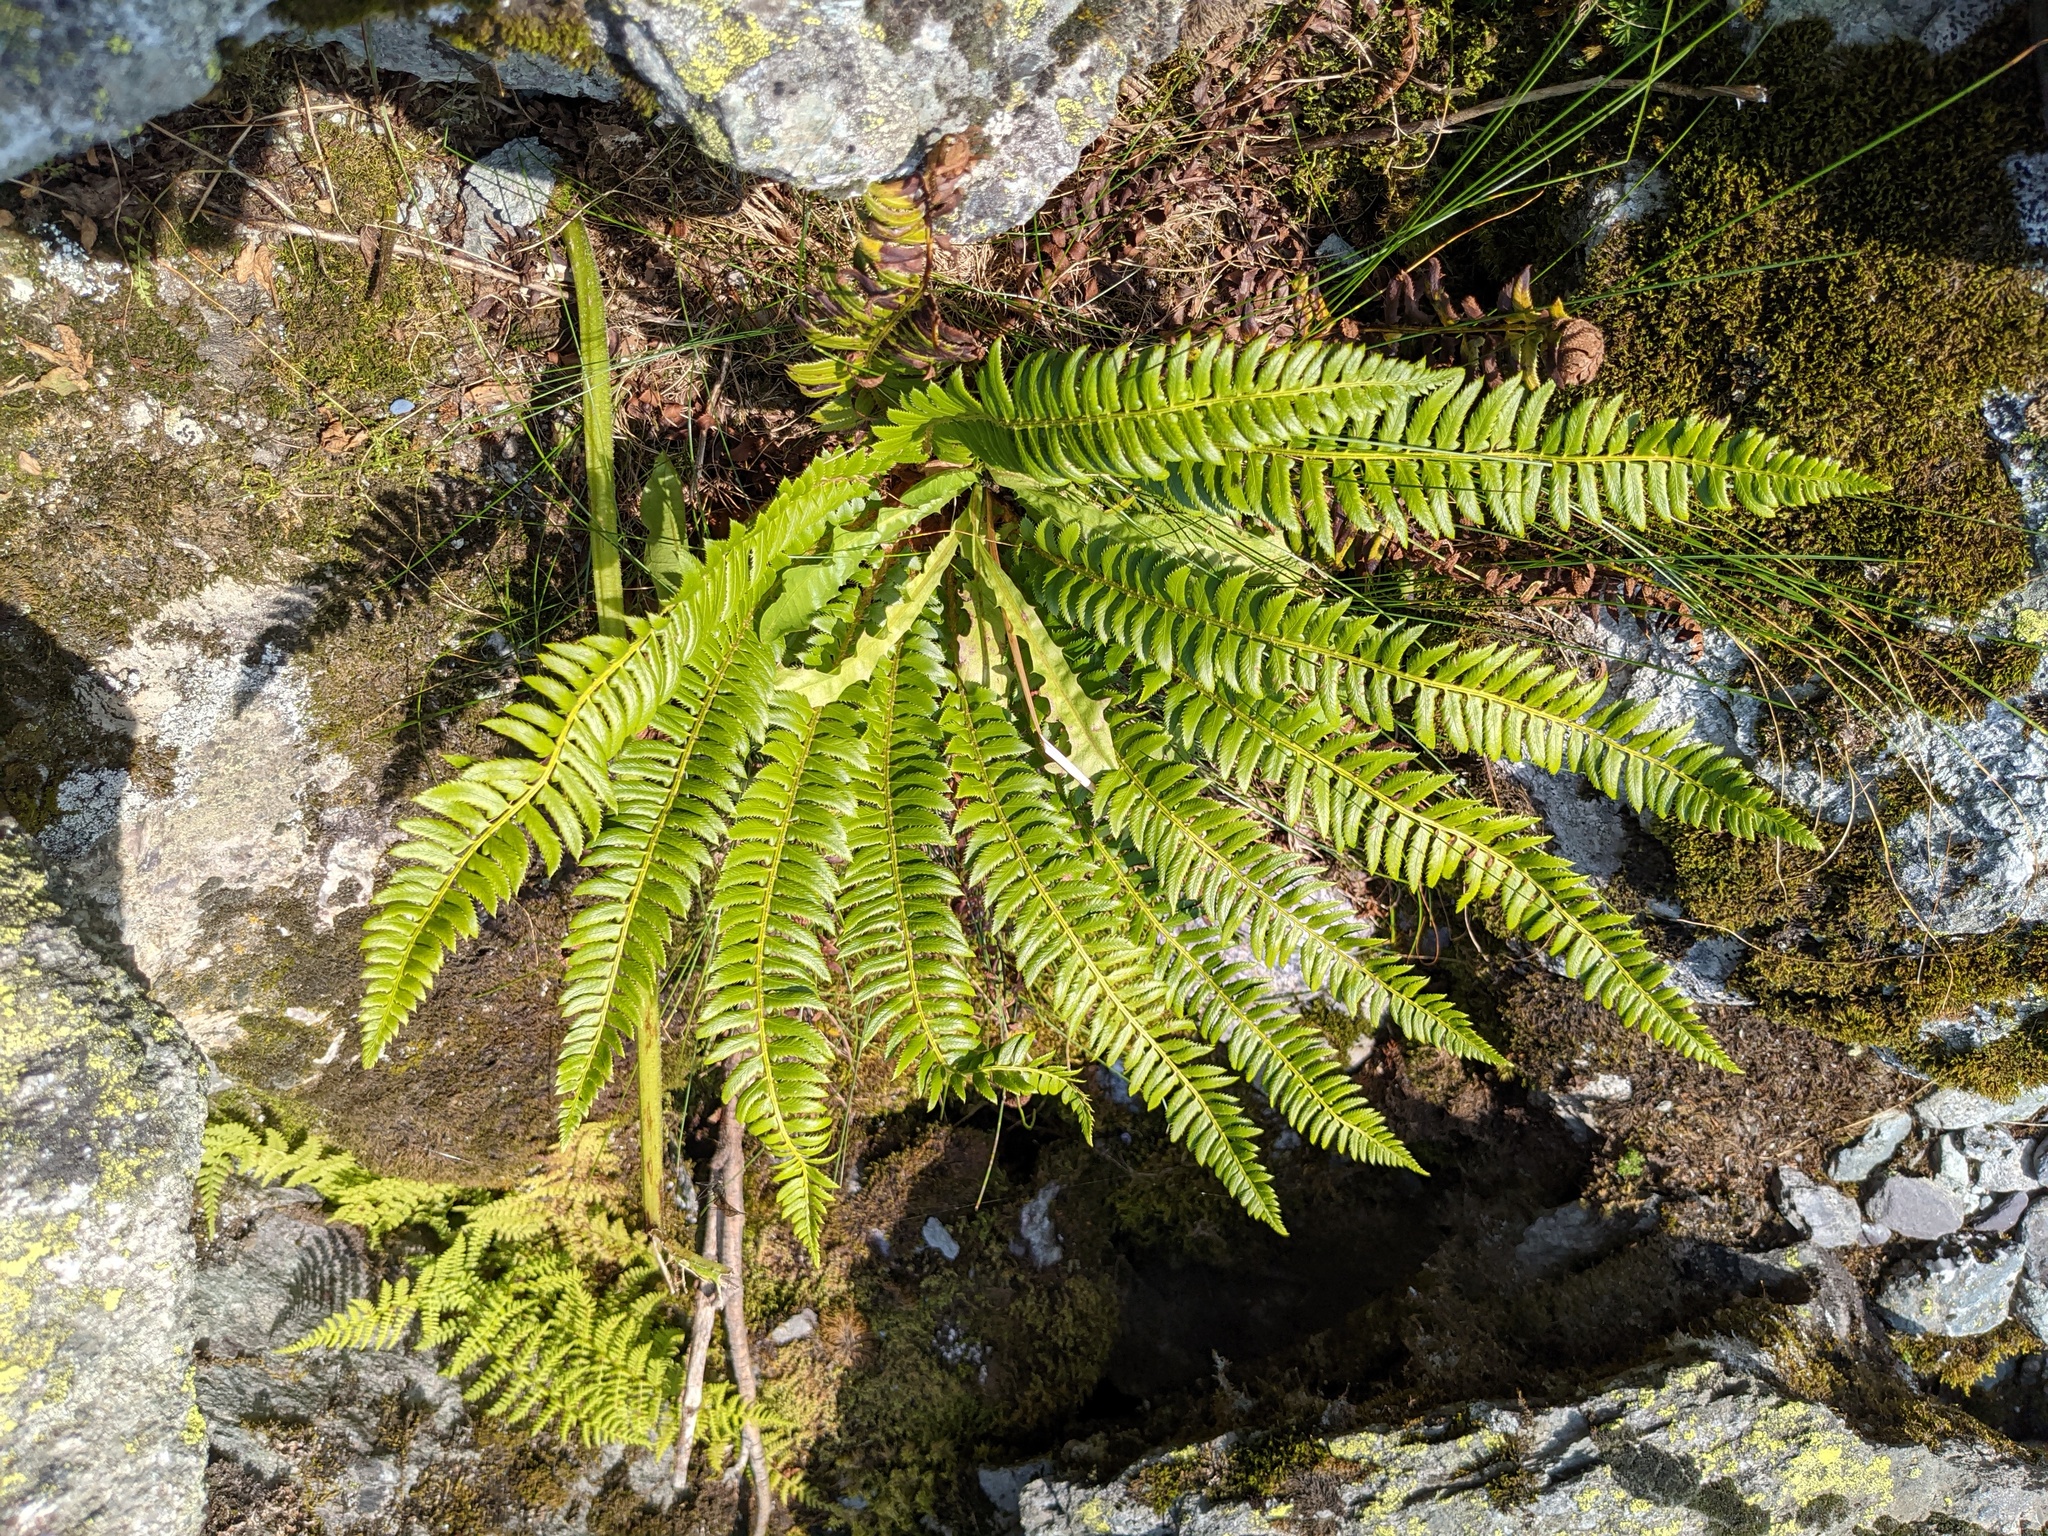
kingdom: Plantae
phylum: Tracheophyta
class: Polypodiopsida
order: Polypodiales
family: Dryopteridaceae
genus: Polystichum
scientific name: Polystichum lonchitis
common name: Holly fern
